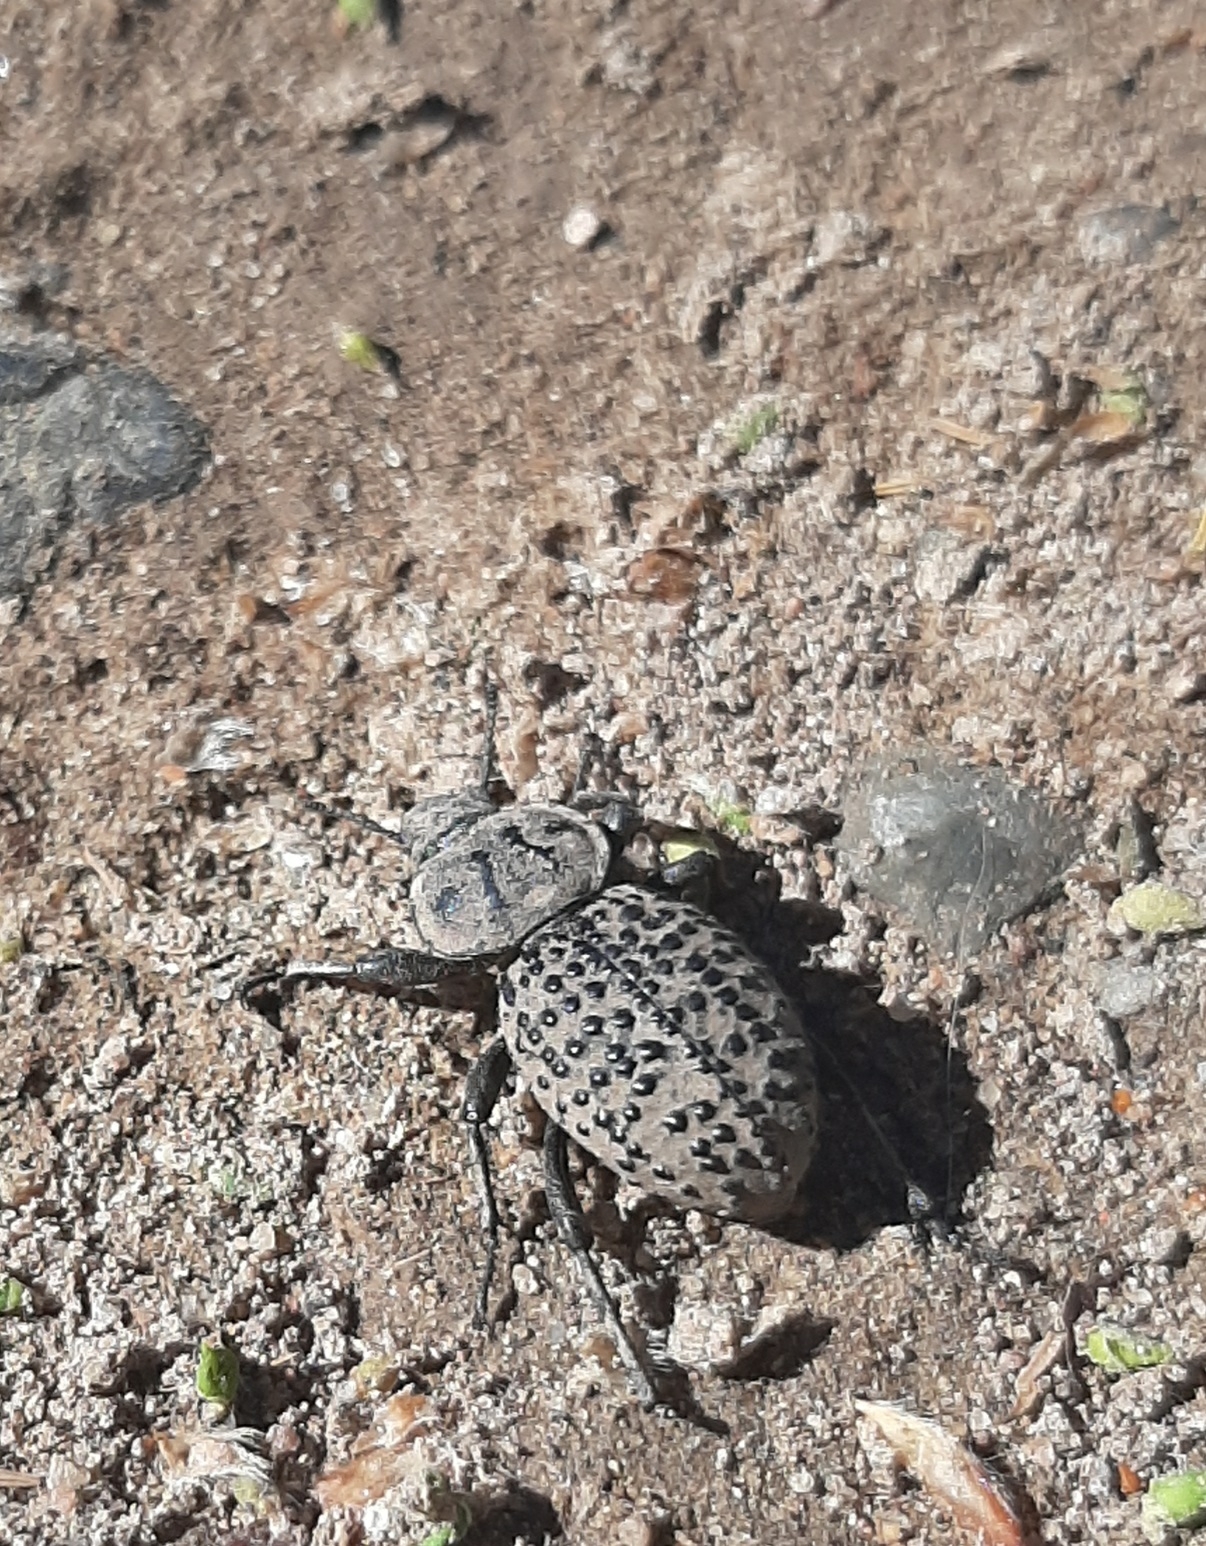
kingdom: Animalia
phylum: Arthropoda
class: Insecta
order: Coleoptera
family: Tenebrionidae
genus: Scotobius
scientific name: Scotobius pilularius
